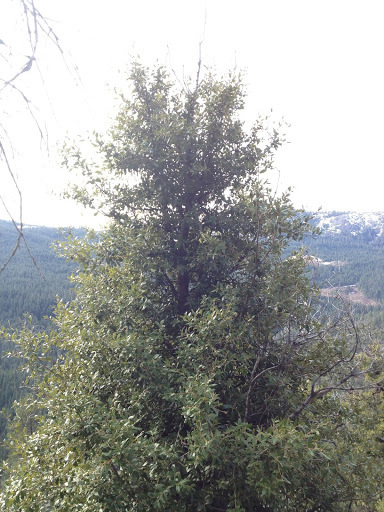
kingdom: Plantae
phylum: Tracheophyta
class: Magnoliopsida
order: Fagales
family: Fagaceae
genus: Quercus
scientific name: Quercus chrysolepis
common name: Canyon live oak
